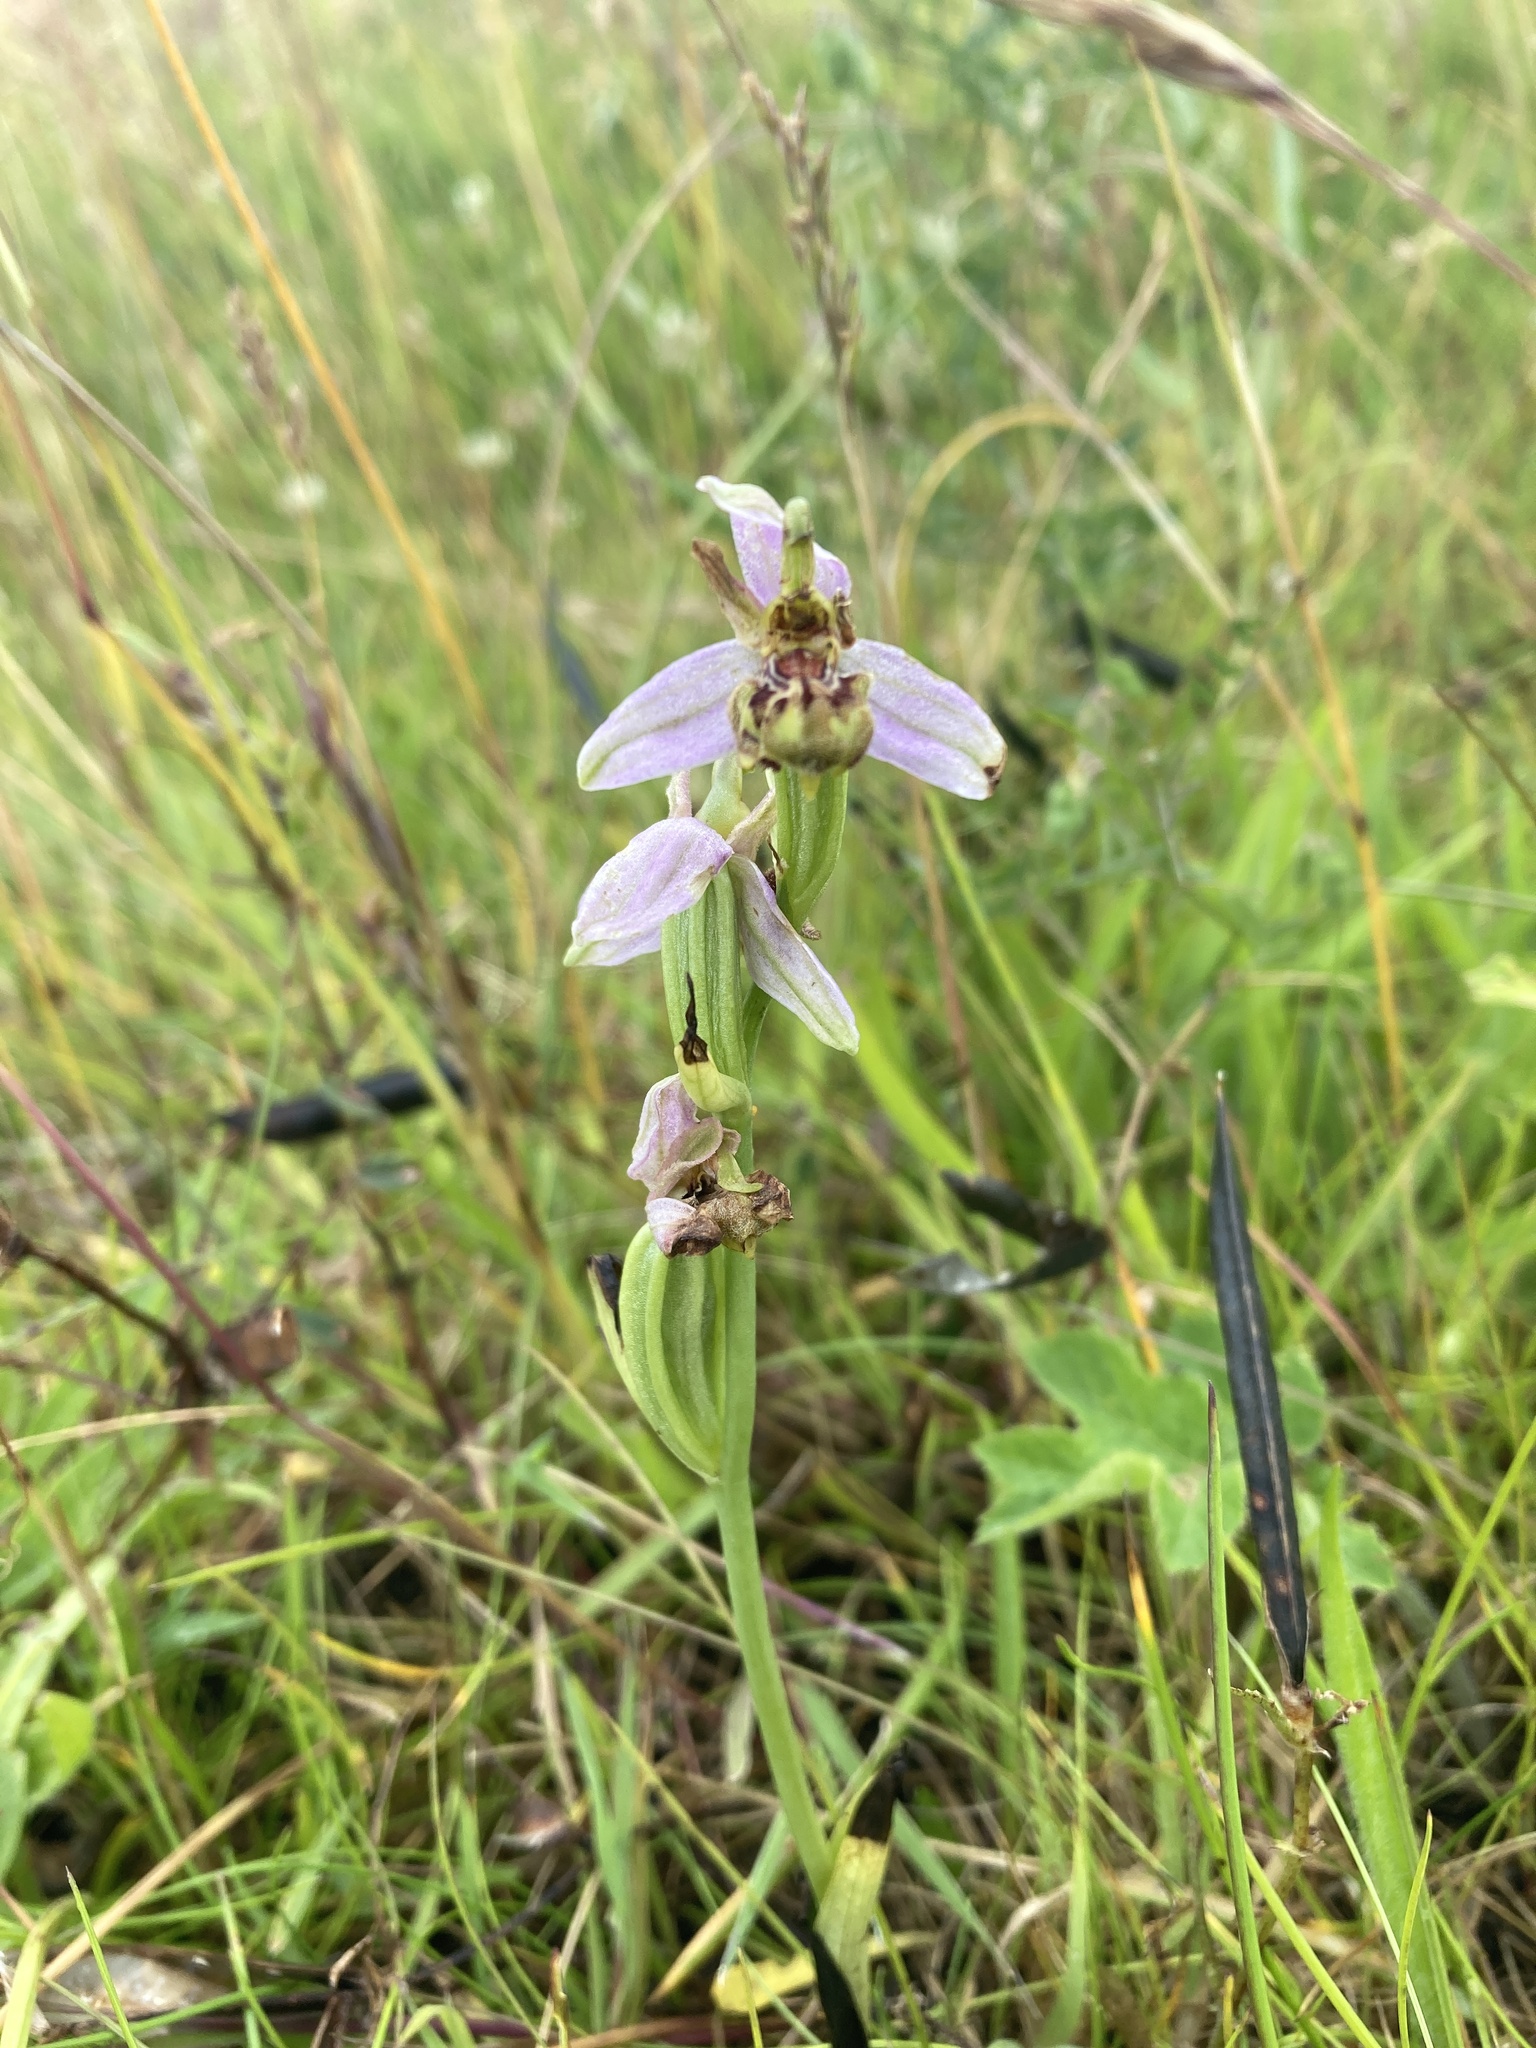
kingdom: Plantae
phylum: Tracheophyta
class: Liliopsida
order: Asparagales
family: Orchidaceae
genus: Ophrys
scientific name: Ophrys apifera
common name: Bee orchid
